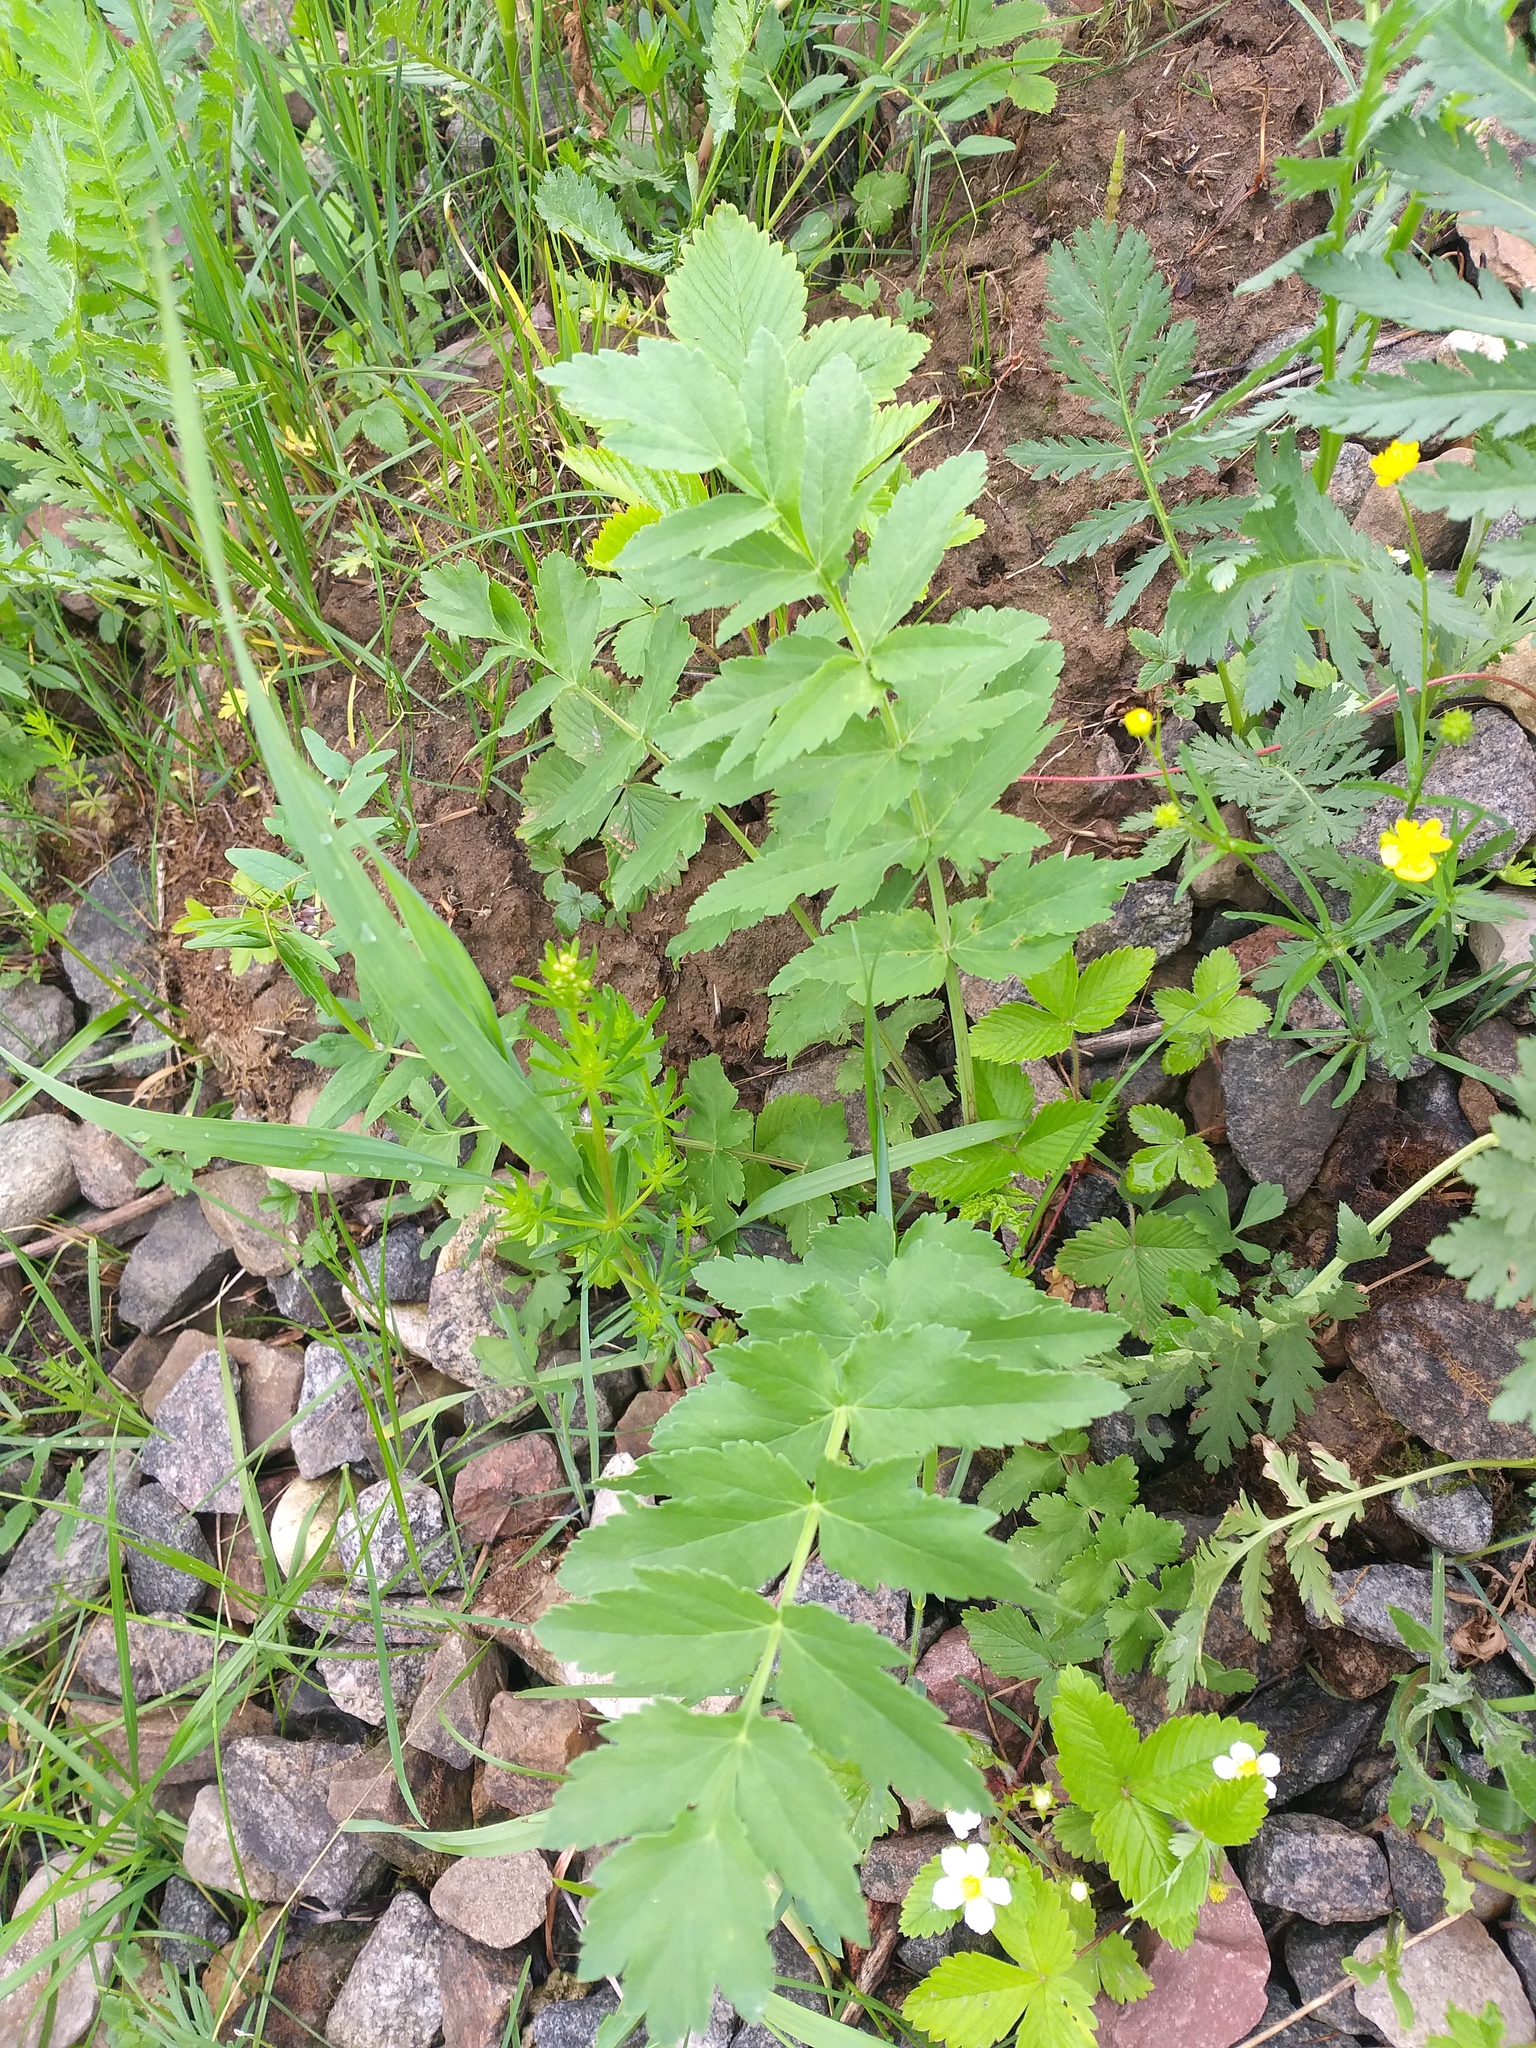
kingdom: Plantae
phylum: Tracheophyta
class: Magnoliopsida
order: Apiales
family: Apiaceae
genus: Pastinaca
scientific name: Pastinaca sativa
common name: Wild parsnip
